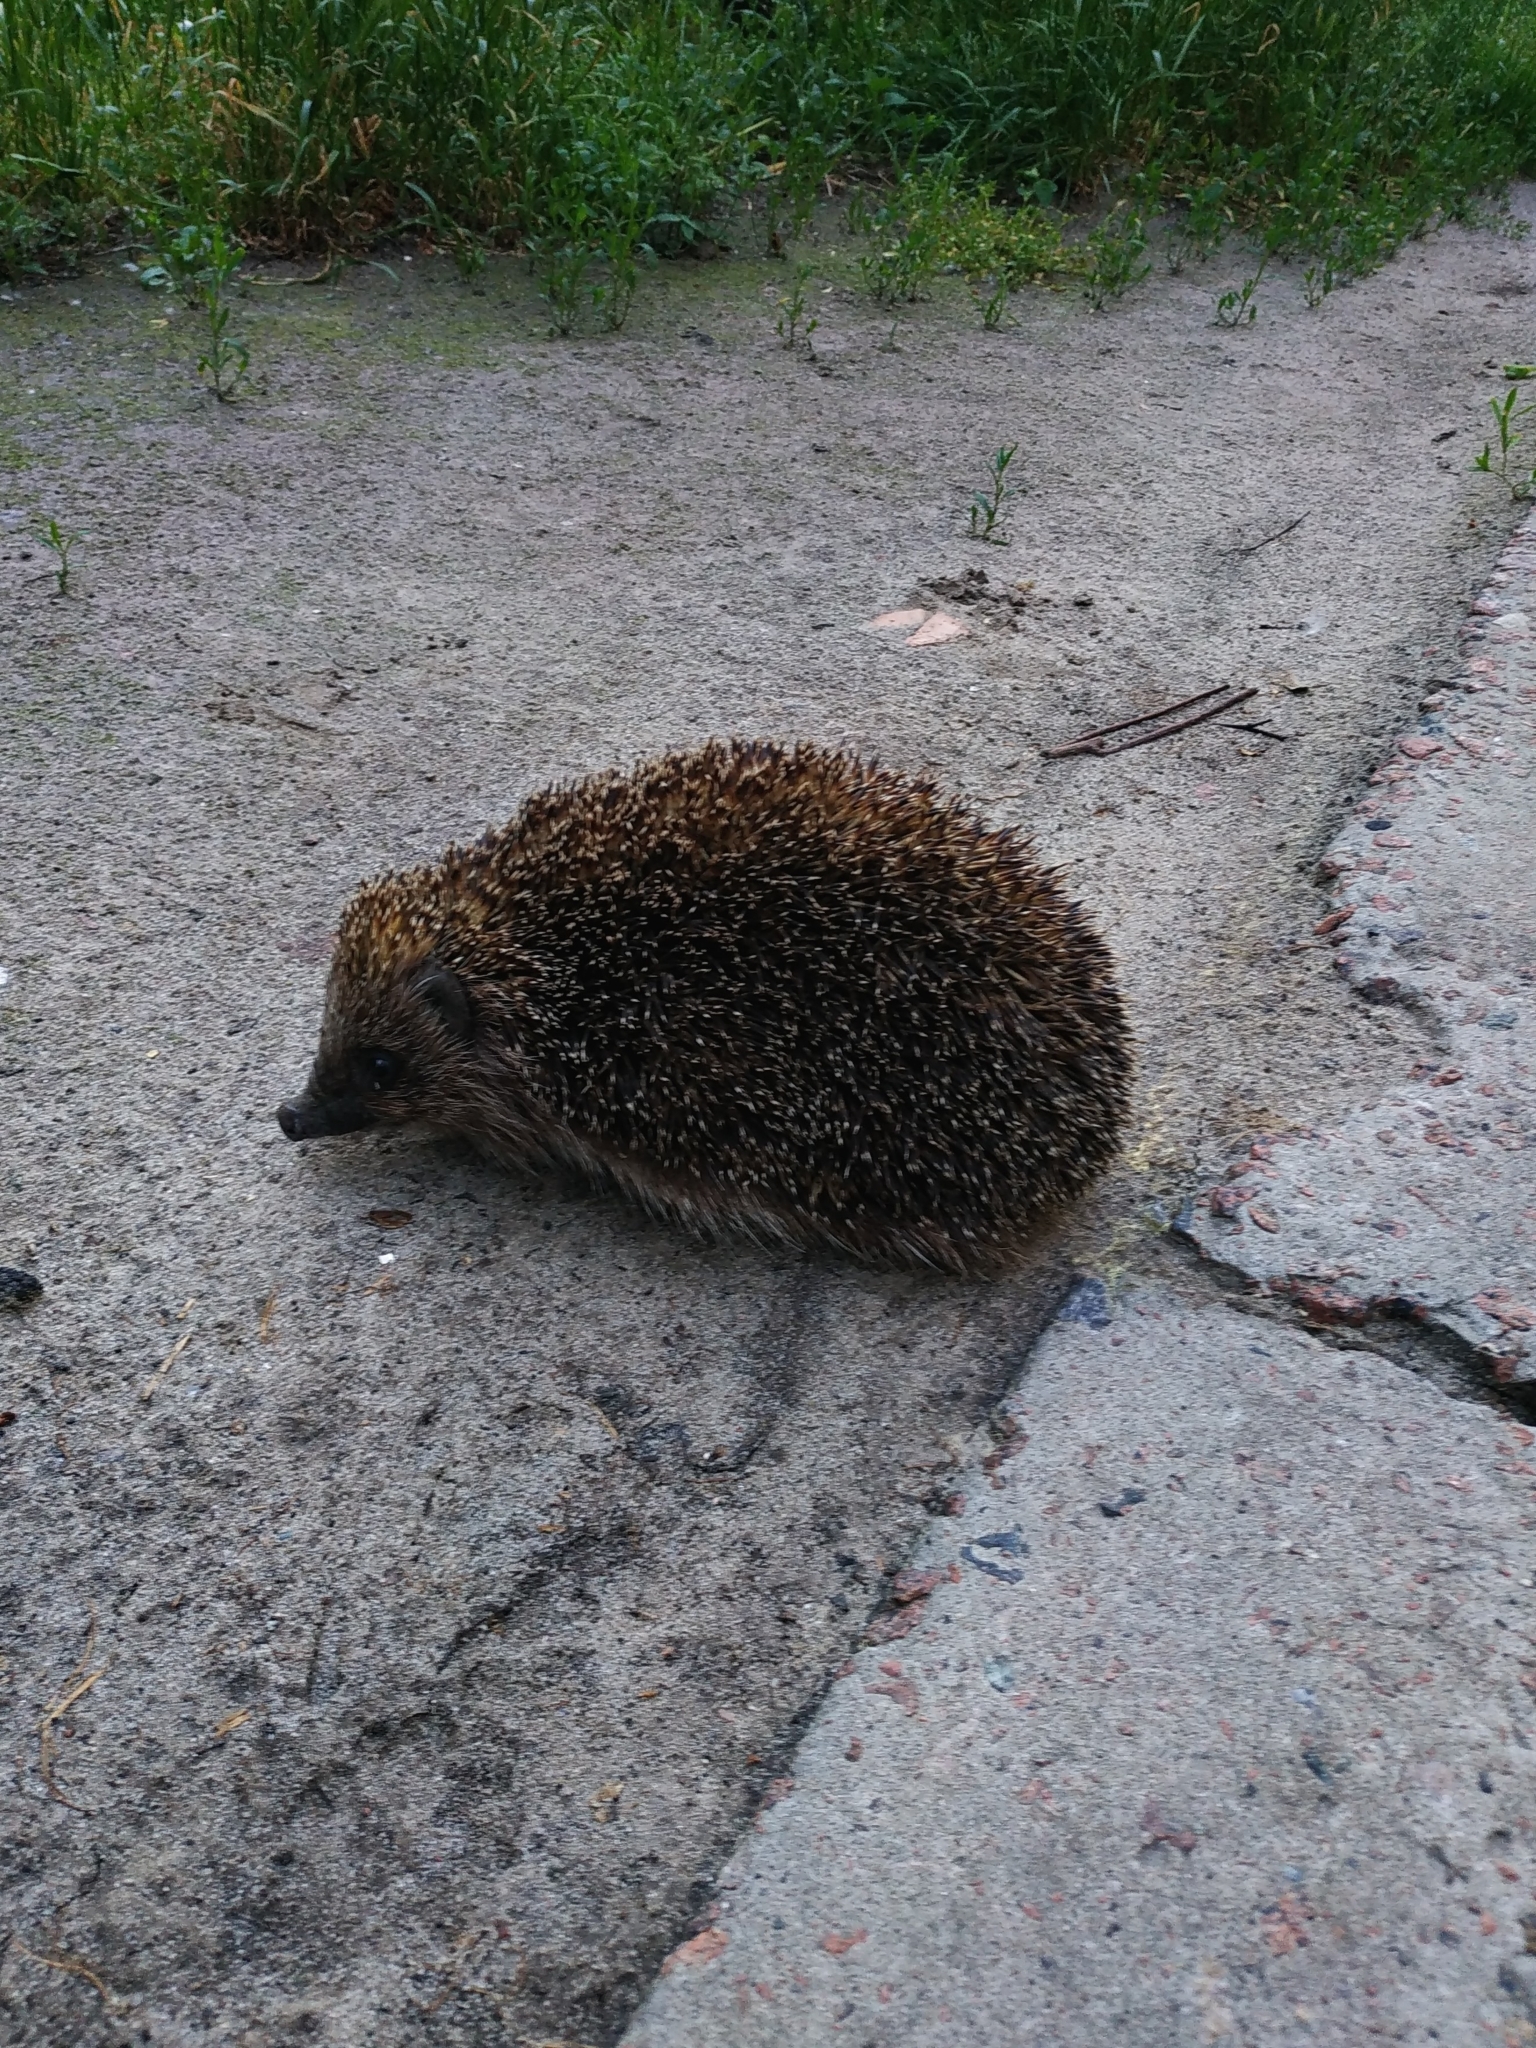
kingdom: Animalia
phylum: Chordata
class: Mammalia
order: Erinaceomorpha
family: Erinaceidae
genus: Erinaceus
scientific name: Erinaceus roumanicus
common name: Northern white-breasted hedgehog
